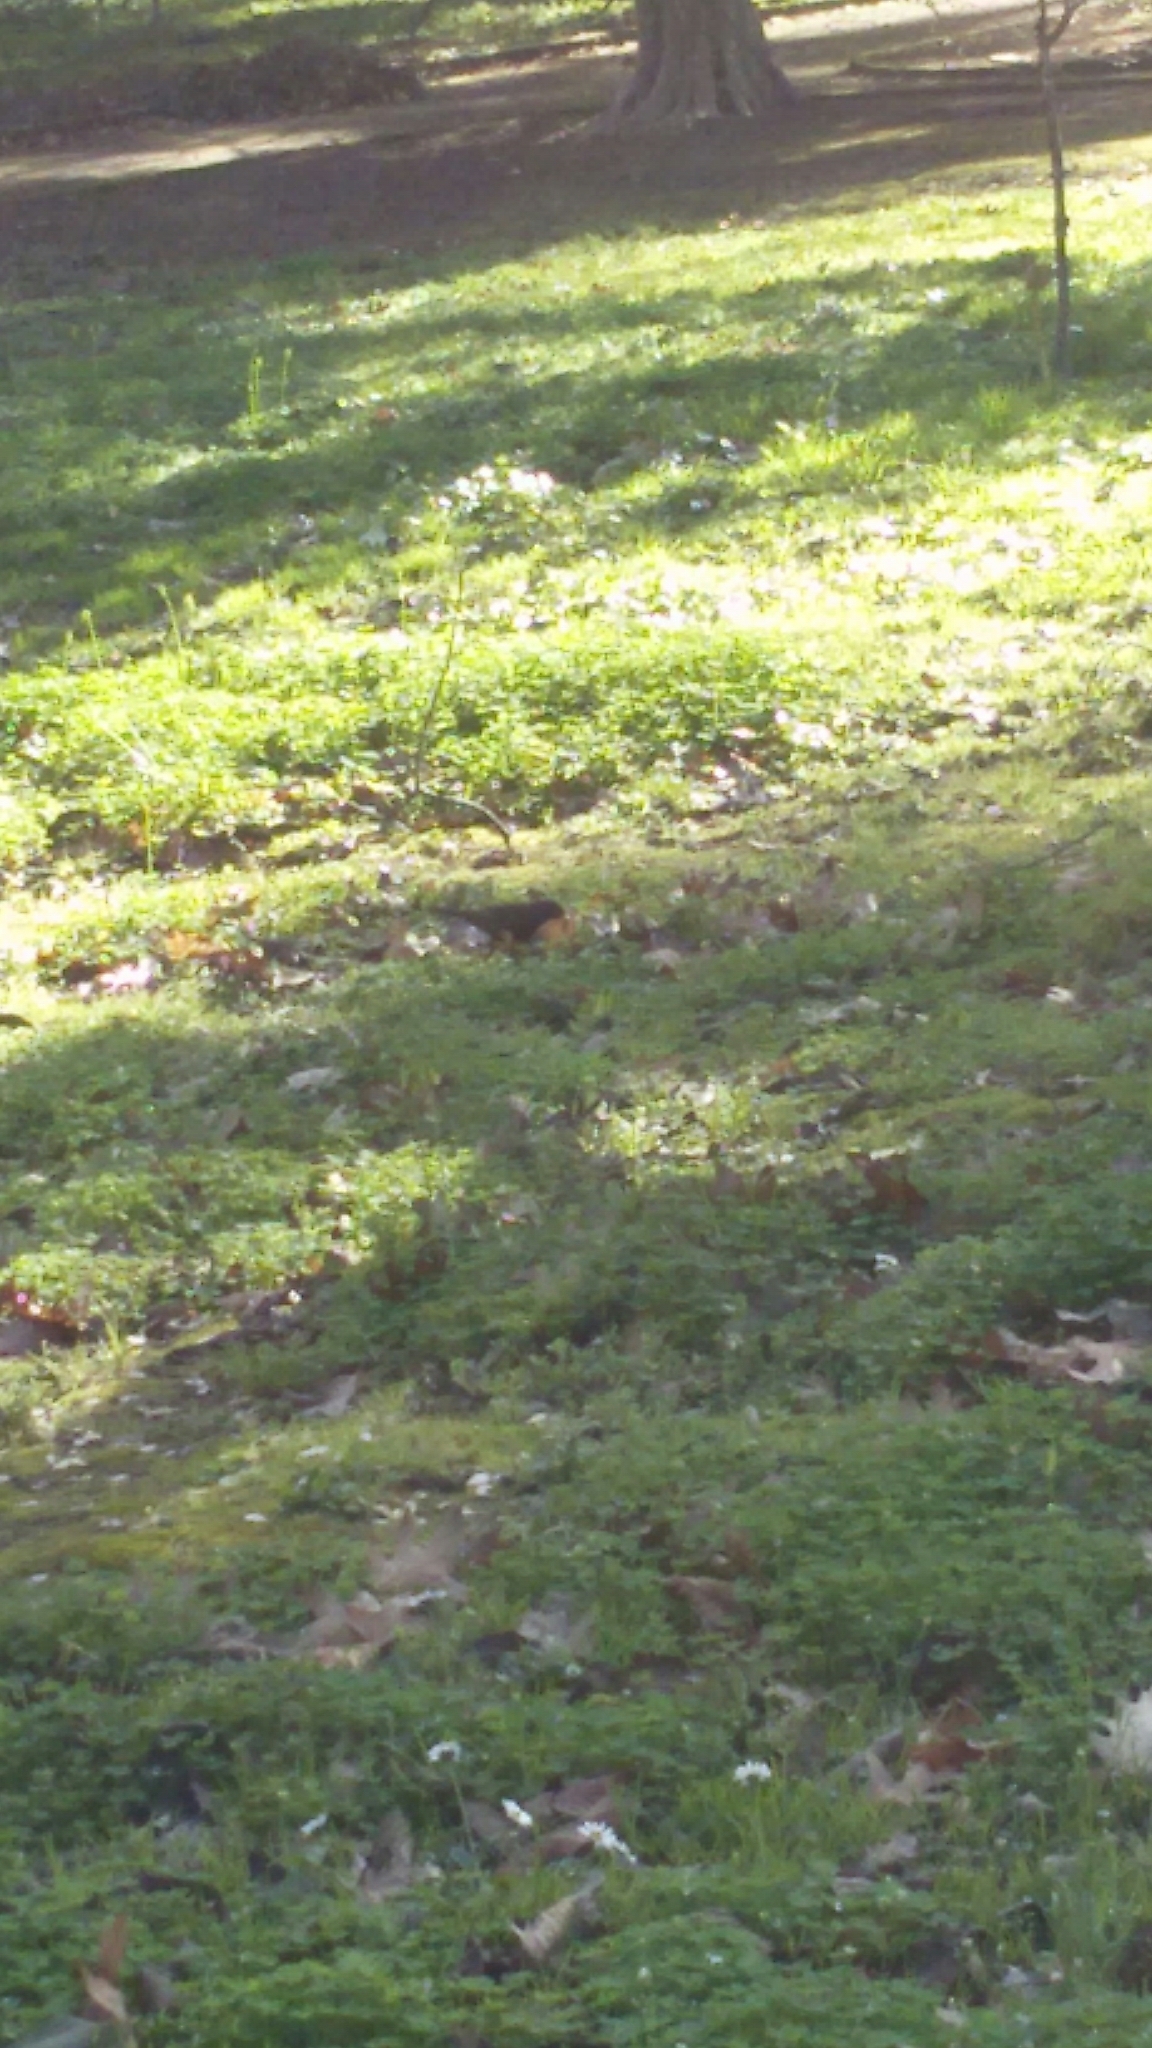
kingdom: Animalia
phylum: Chordata
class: Aves
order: Passeriformes
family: Turdidae
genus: Turdus
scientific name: Turdus merula
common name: Common blackbird
